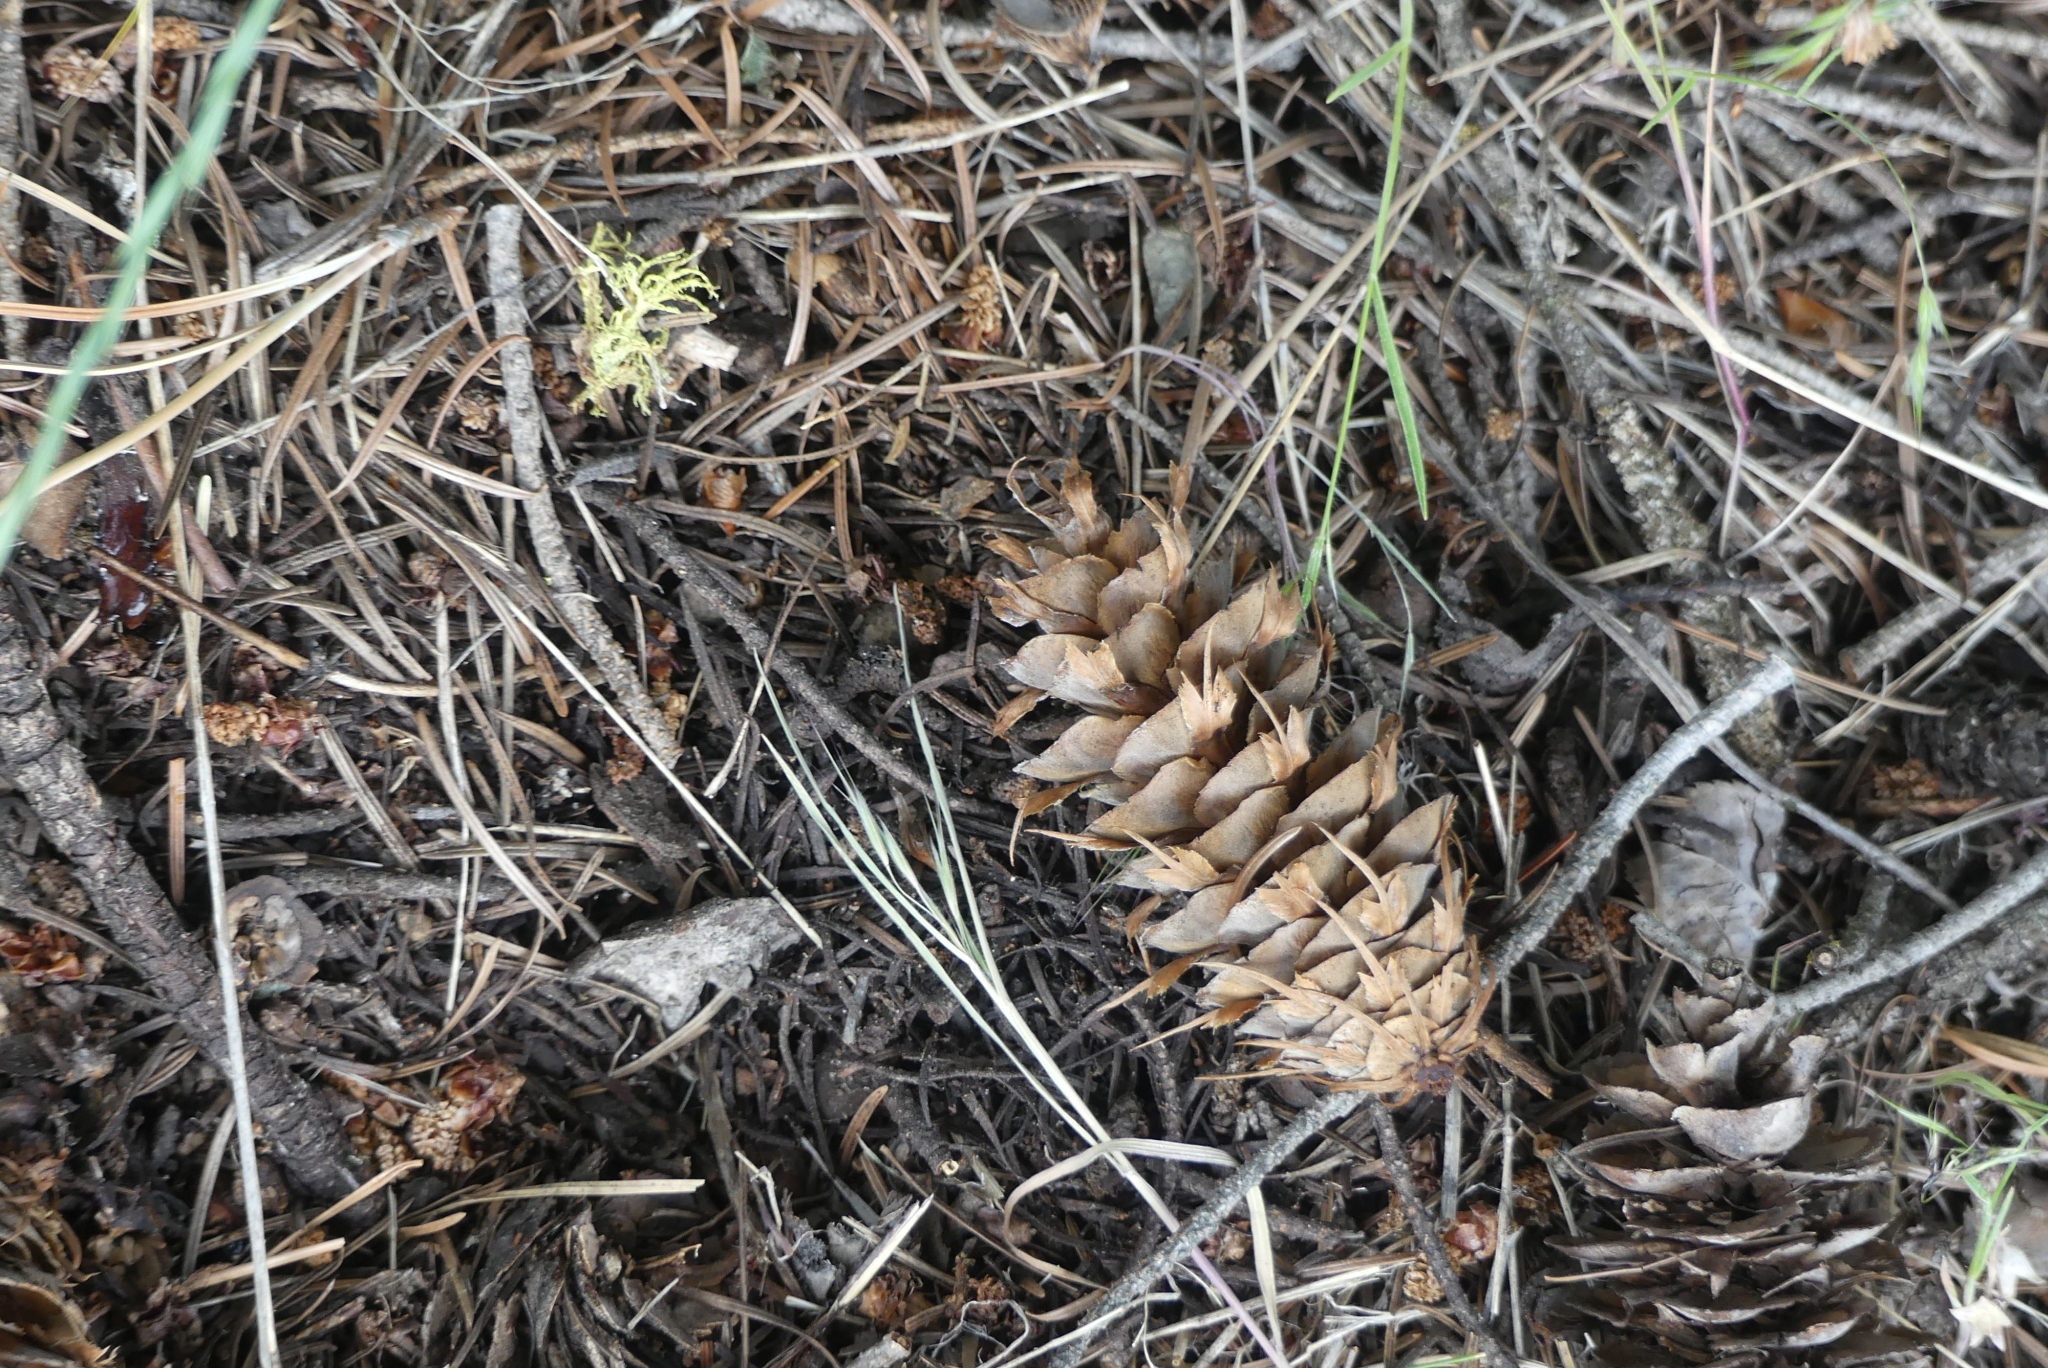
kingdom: Plantae
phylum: Tracheophyta
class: Pinopsida
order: Pinales
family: Pinaceae
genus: Pseudotsuga
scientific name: Pseudotsuga menziesii
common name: Douglas fir
